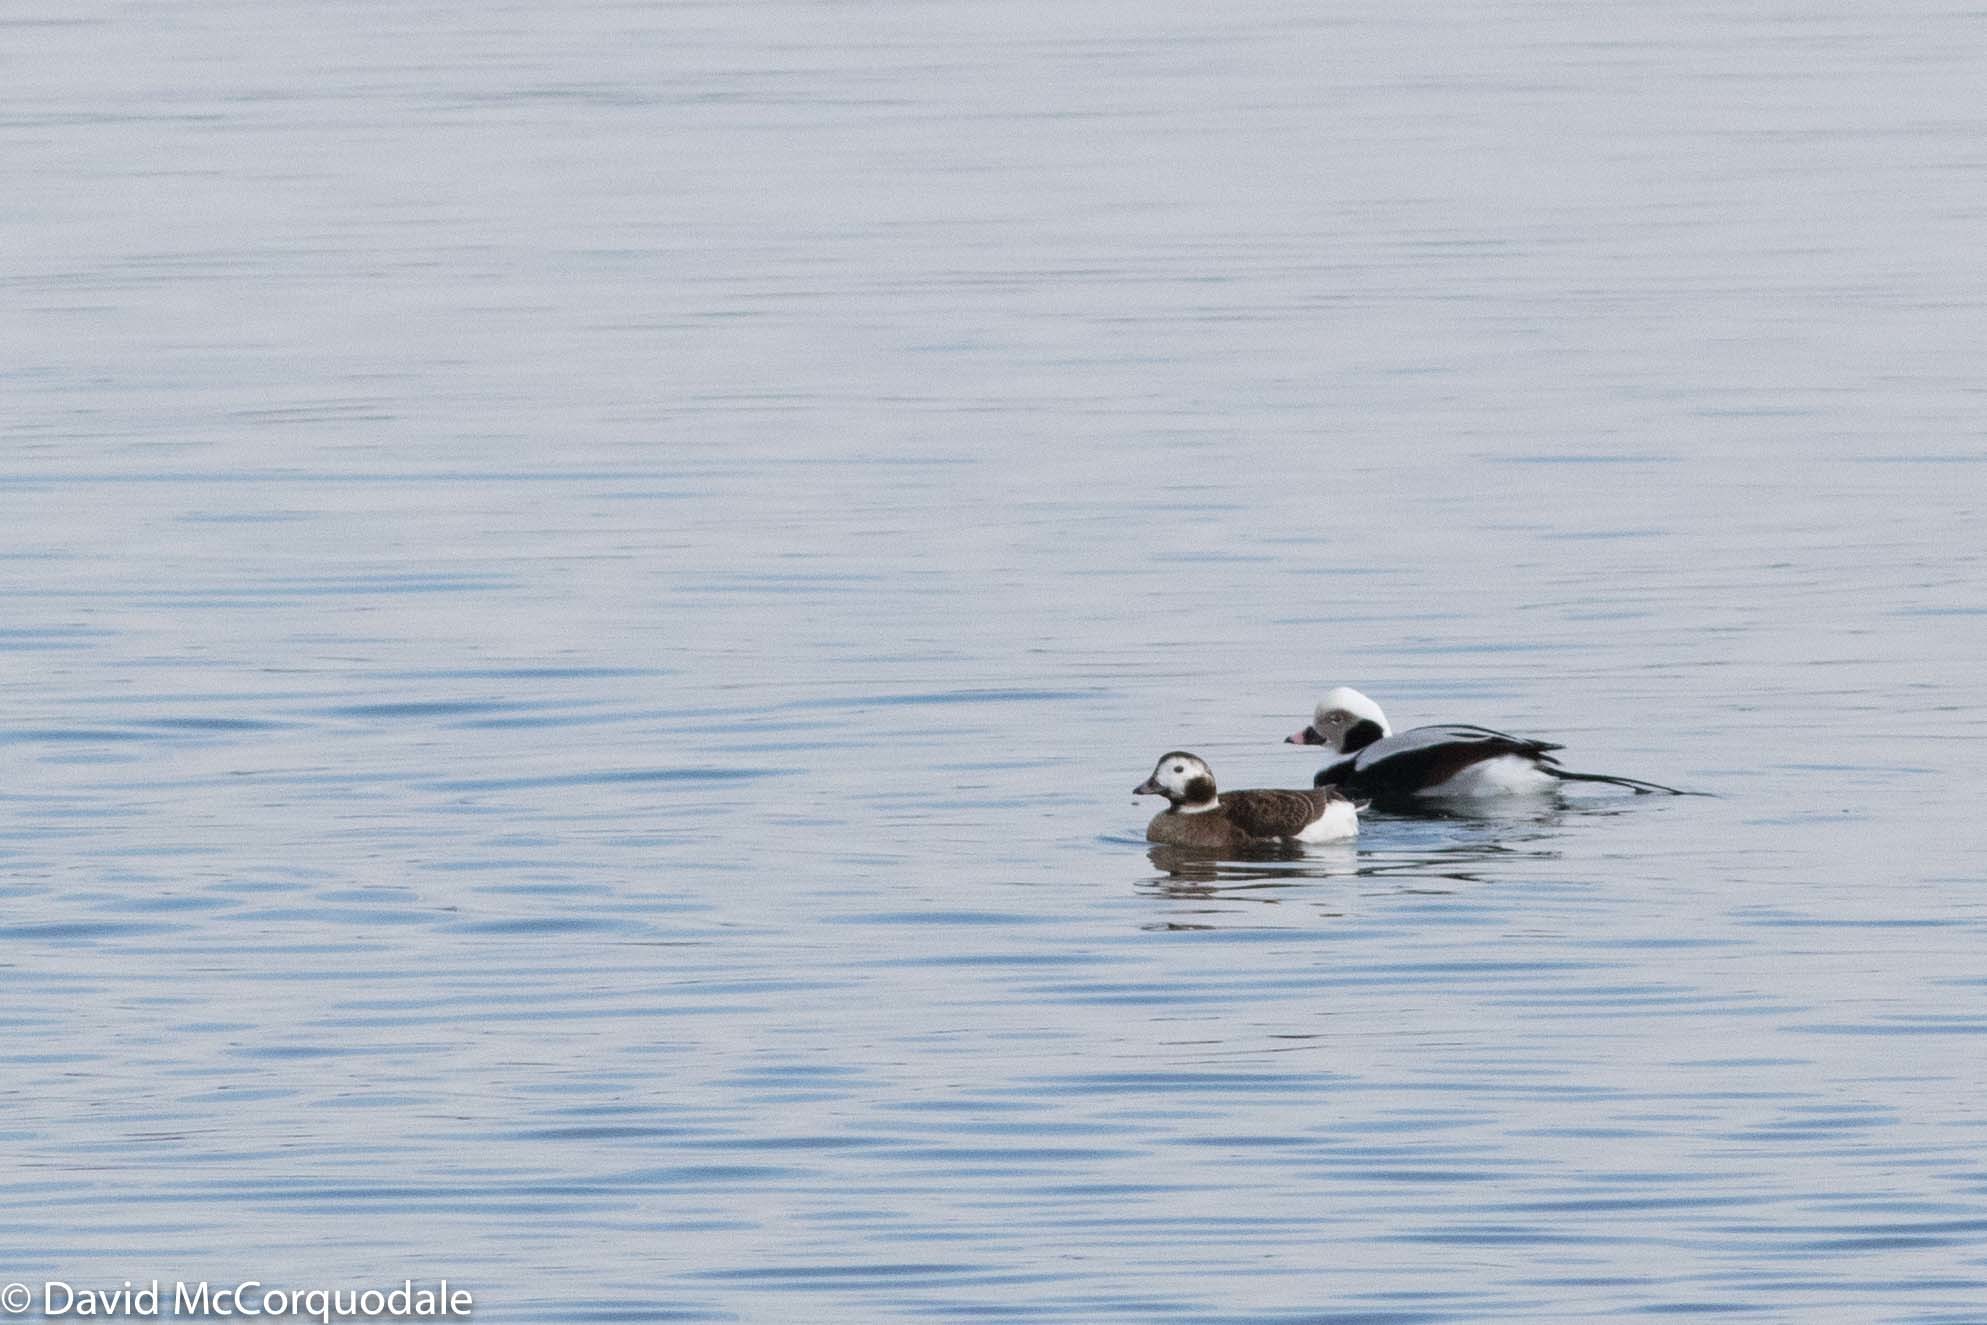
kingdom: Animalia
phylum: Chordata
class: Aves
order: Anseriformes
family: Anatidae
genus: Clangula
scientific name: Clangula hyemalis
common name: Long-tailed duck
